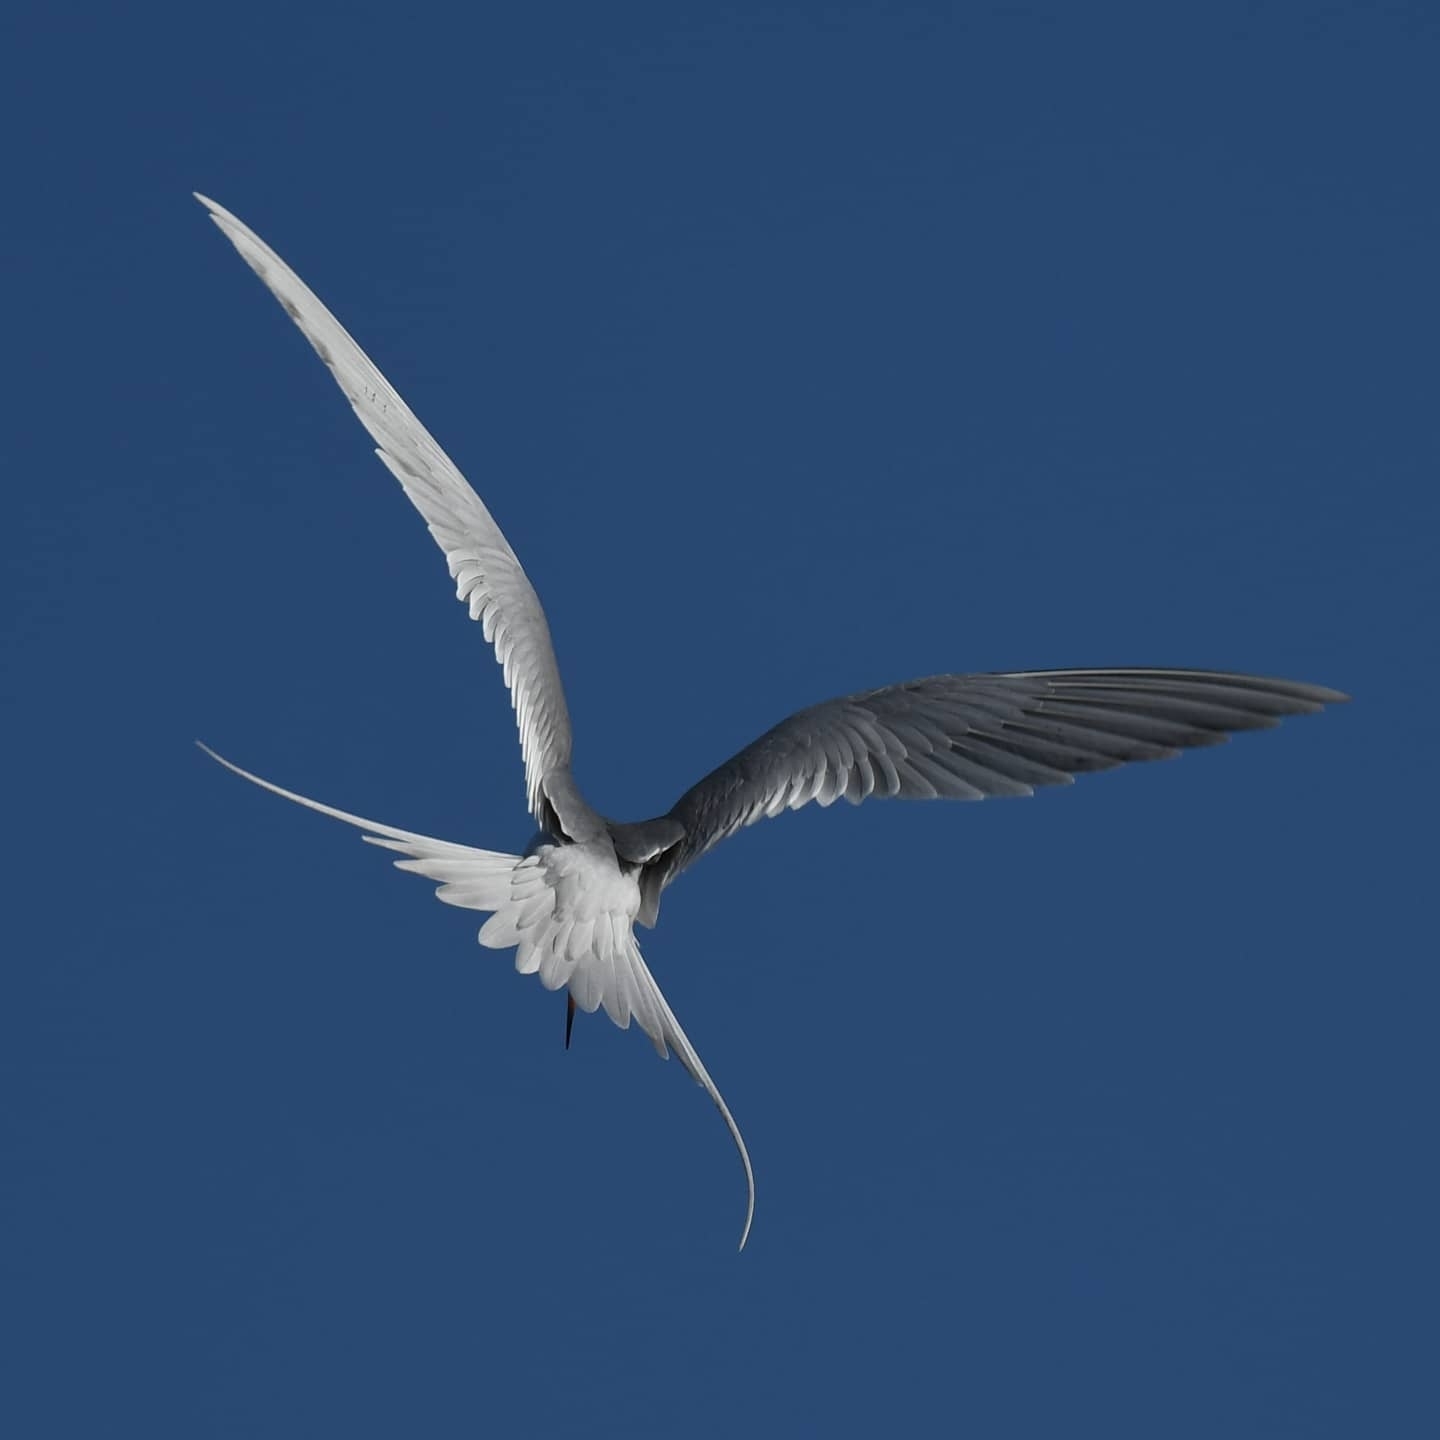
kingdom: Animalia
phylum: Chordata
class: Aves
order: Charadriiformes
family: Laridae
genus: Sterna
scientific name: Sterna forsteri
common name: Forster's tern
